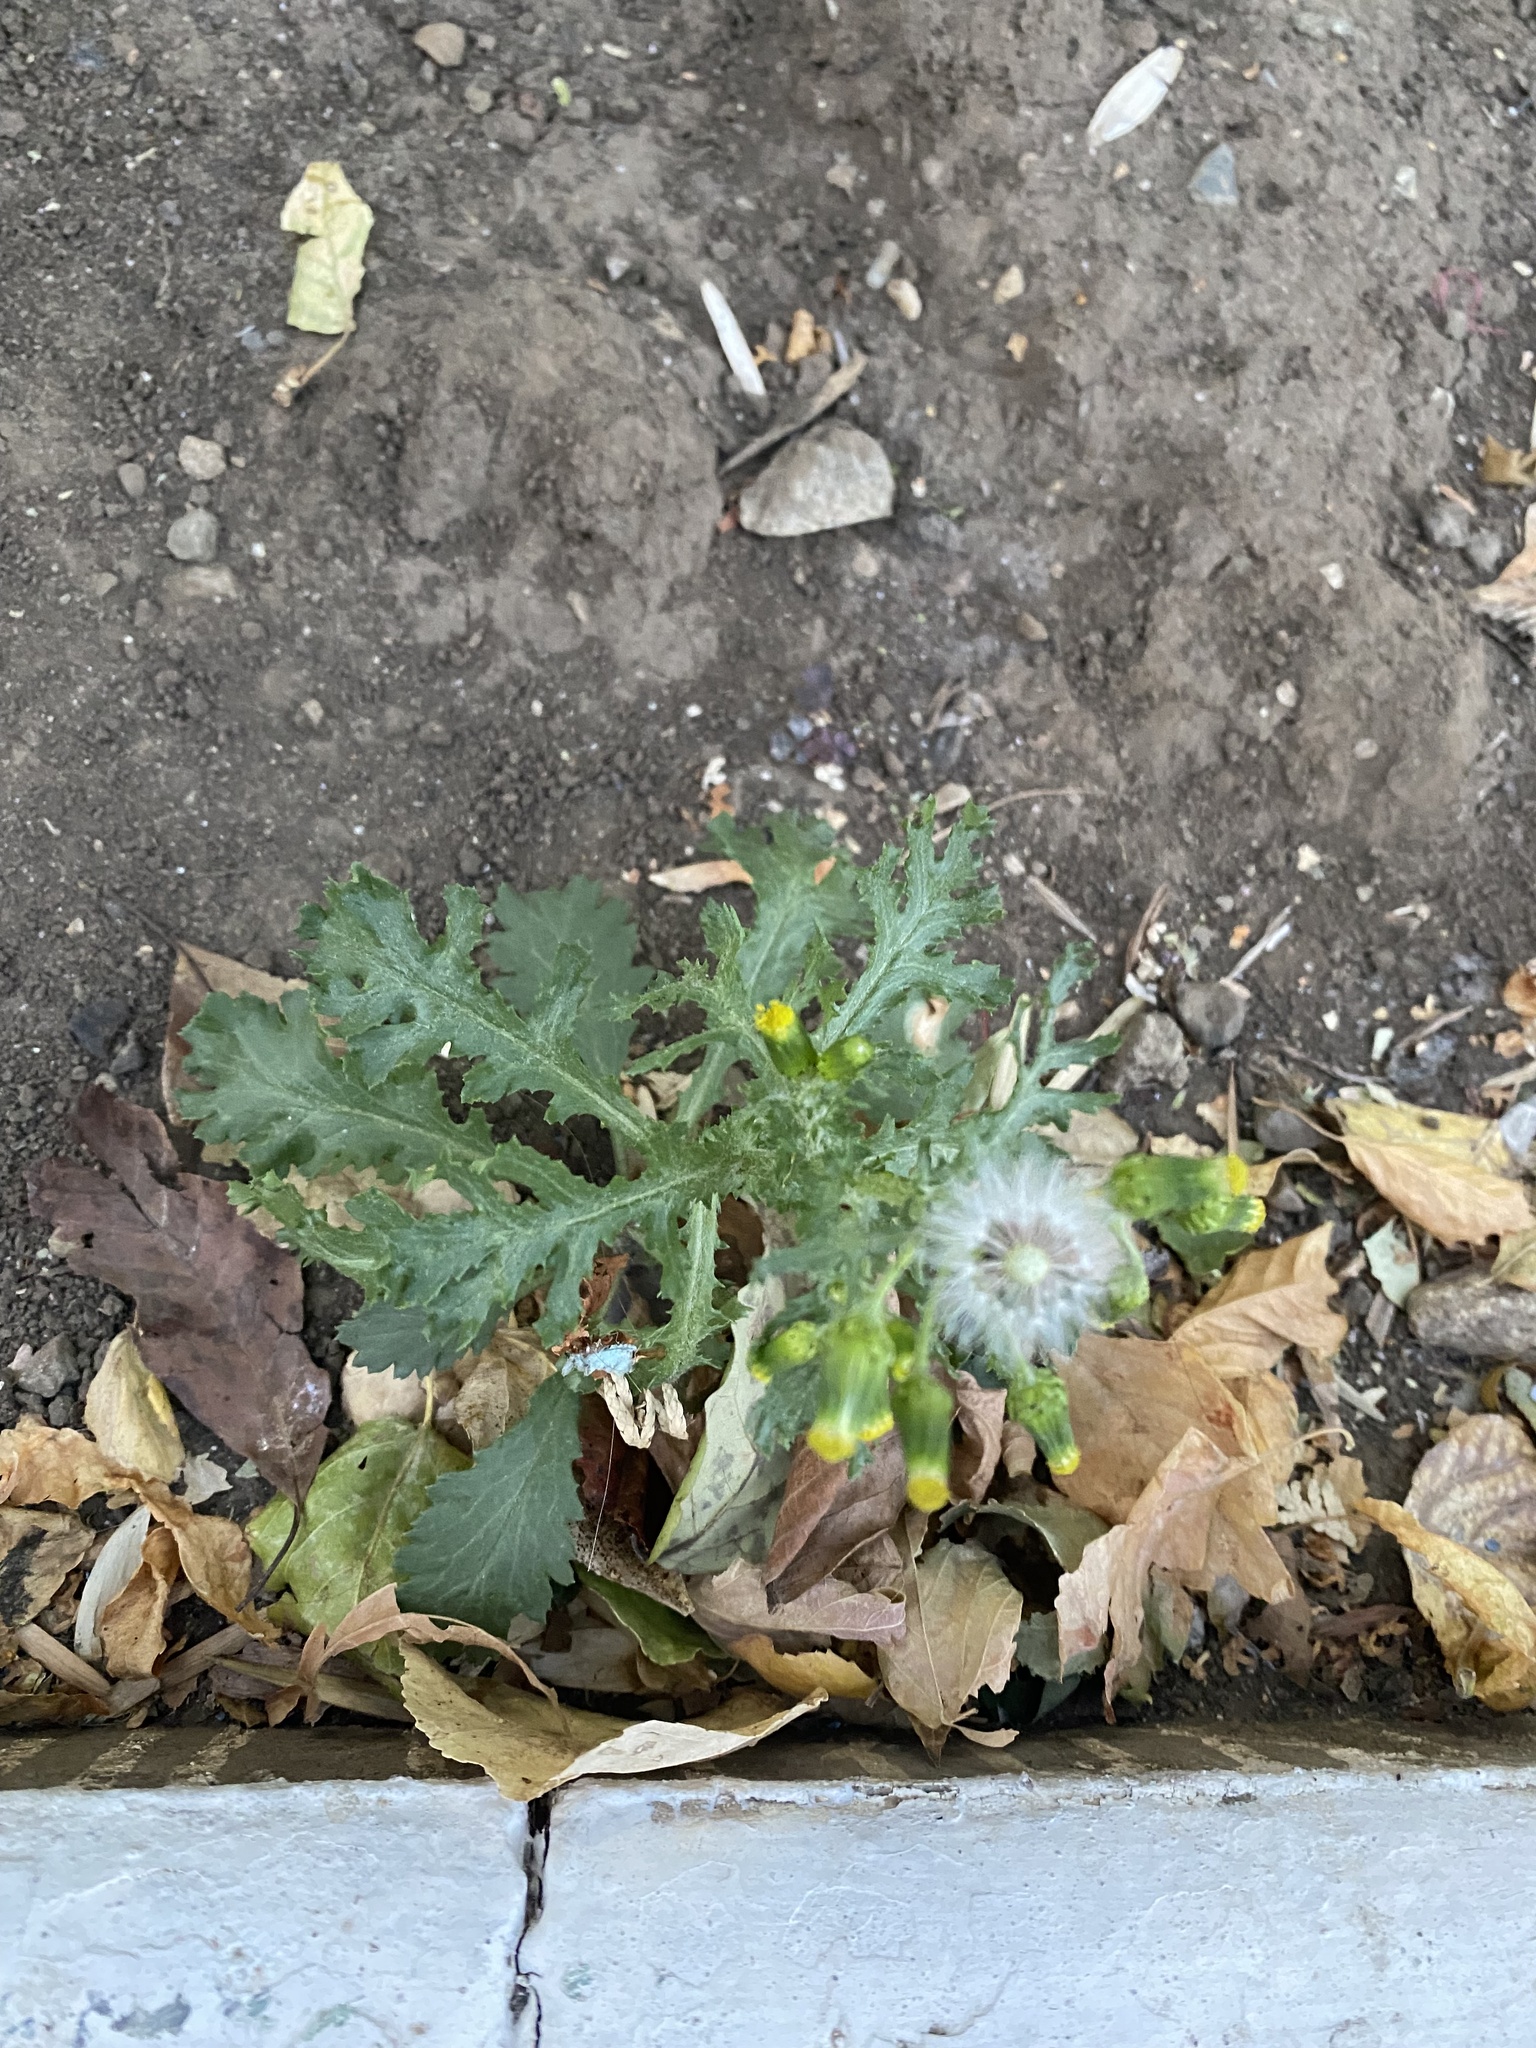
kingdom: Plantae
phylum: Tracheophyta
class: Magnoliopsida
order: Asterales
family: Asteraceae
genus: Senecio
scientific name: Senecio vulgaris
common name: Old-man-in-the-spring
